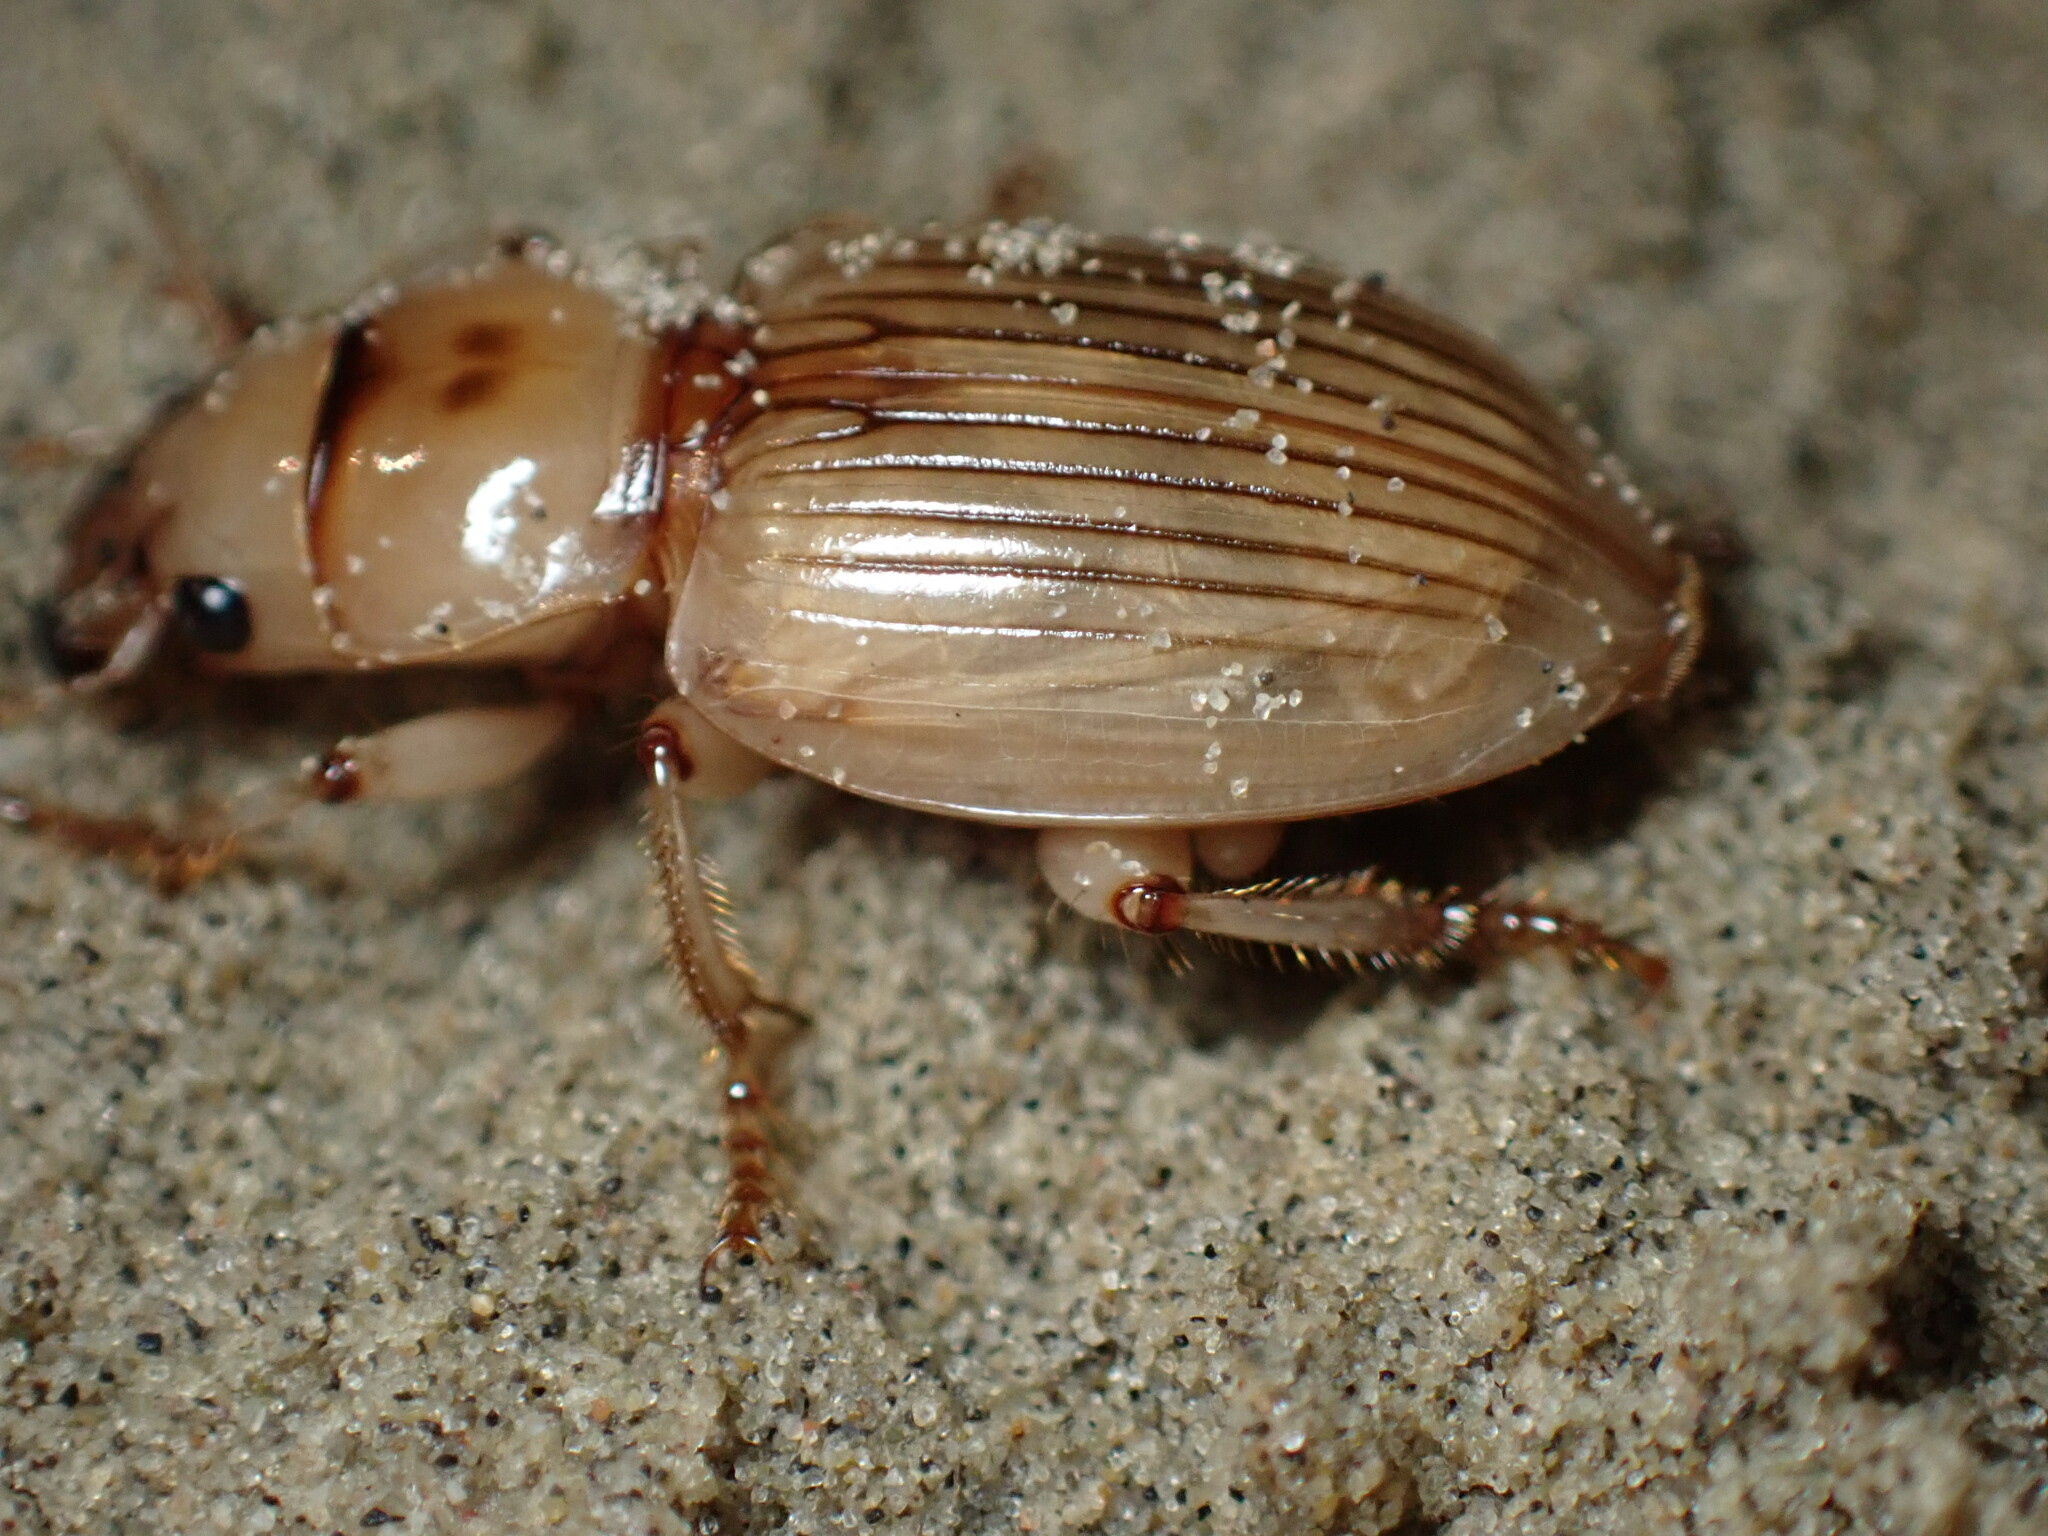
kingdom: Animalia
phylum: Arthropoda
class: Insecta
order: Coleoptera
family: Carabidae
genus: Geopinus
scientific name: Geopinus incrassatus
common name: Homely geopinus
